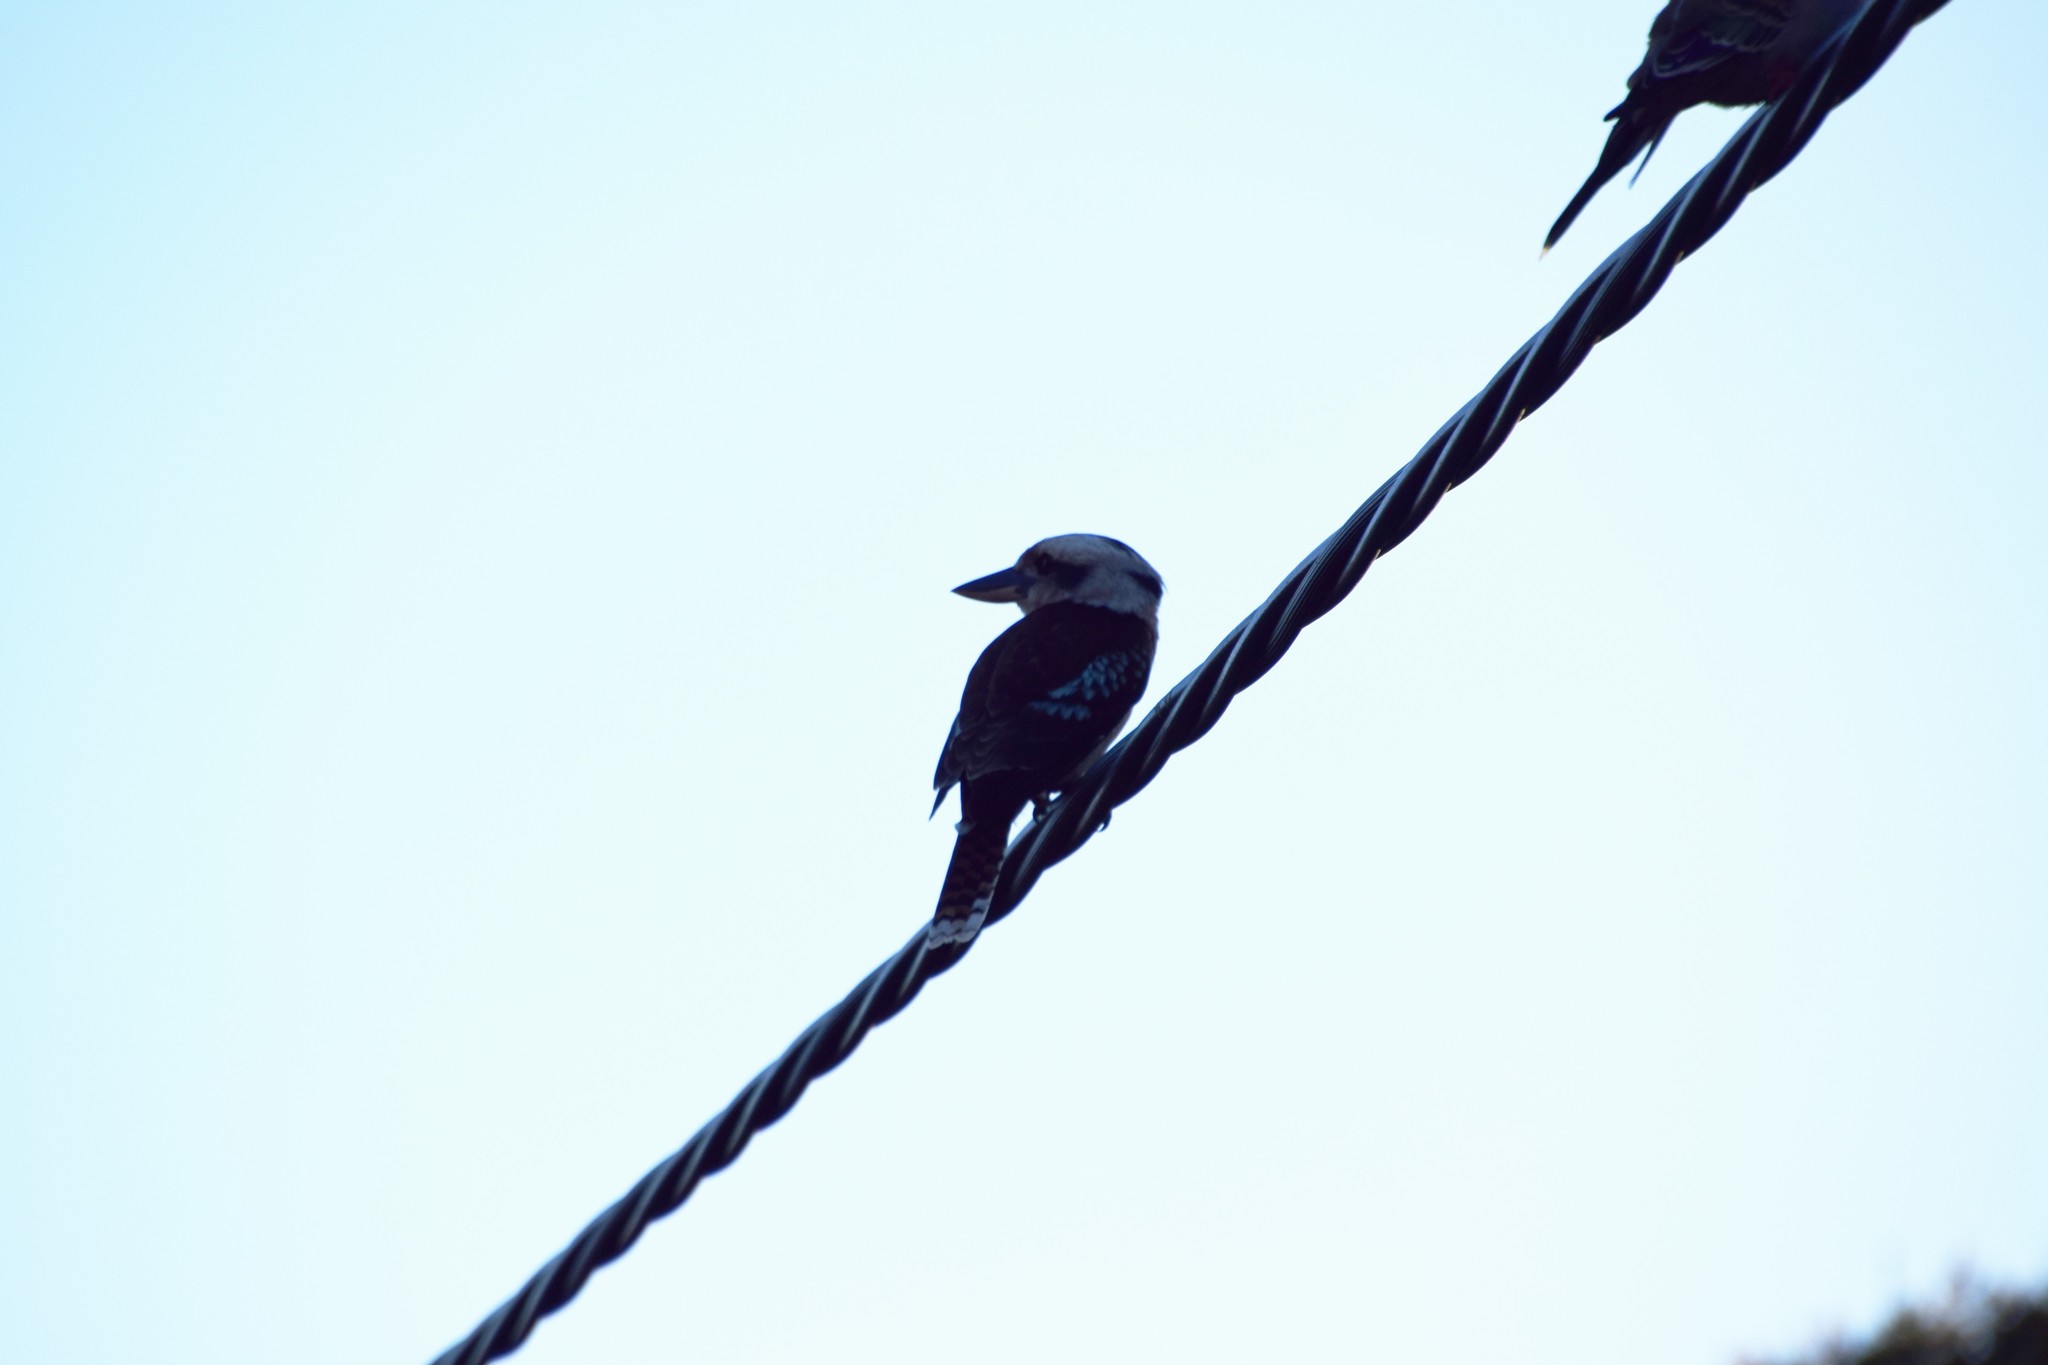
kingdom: Animalia
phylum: Chordata
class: Aves
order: Coraciiformes
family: Alcedinidae
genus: Dacelo
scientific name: Dacelo novaeguineae
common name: Laughing kookaburra
